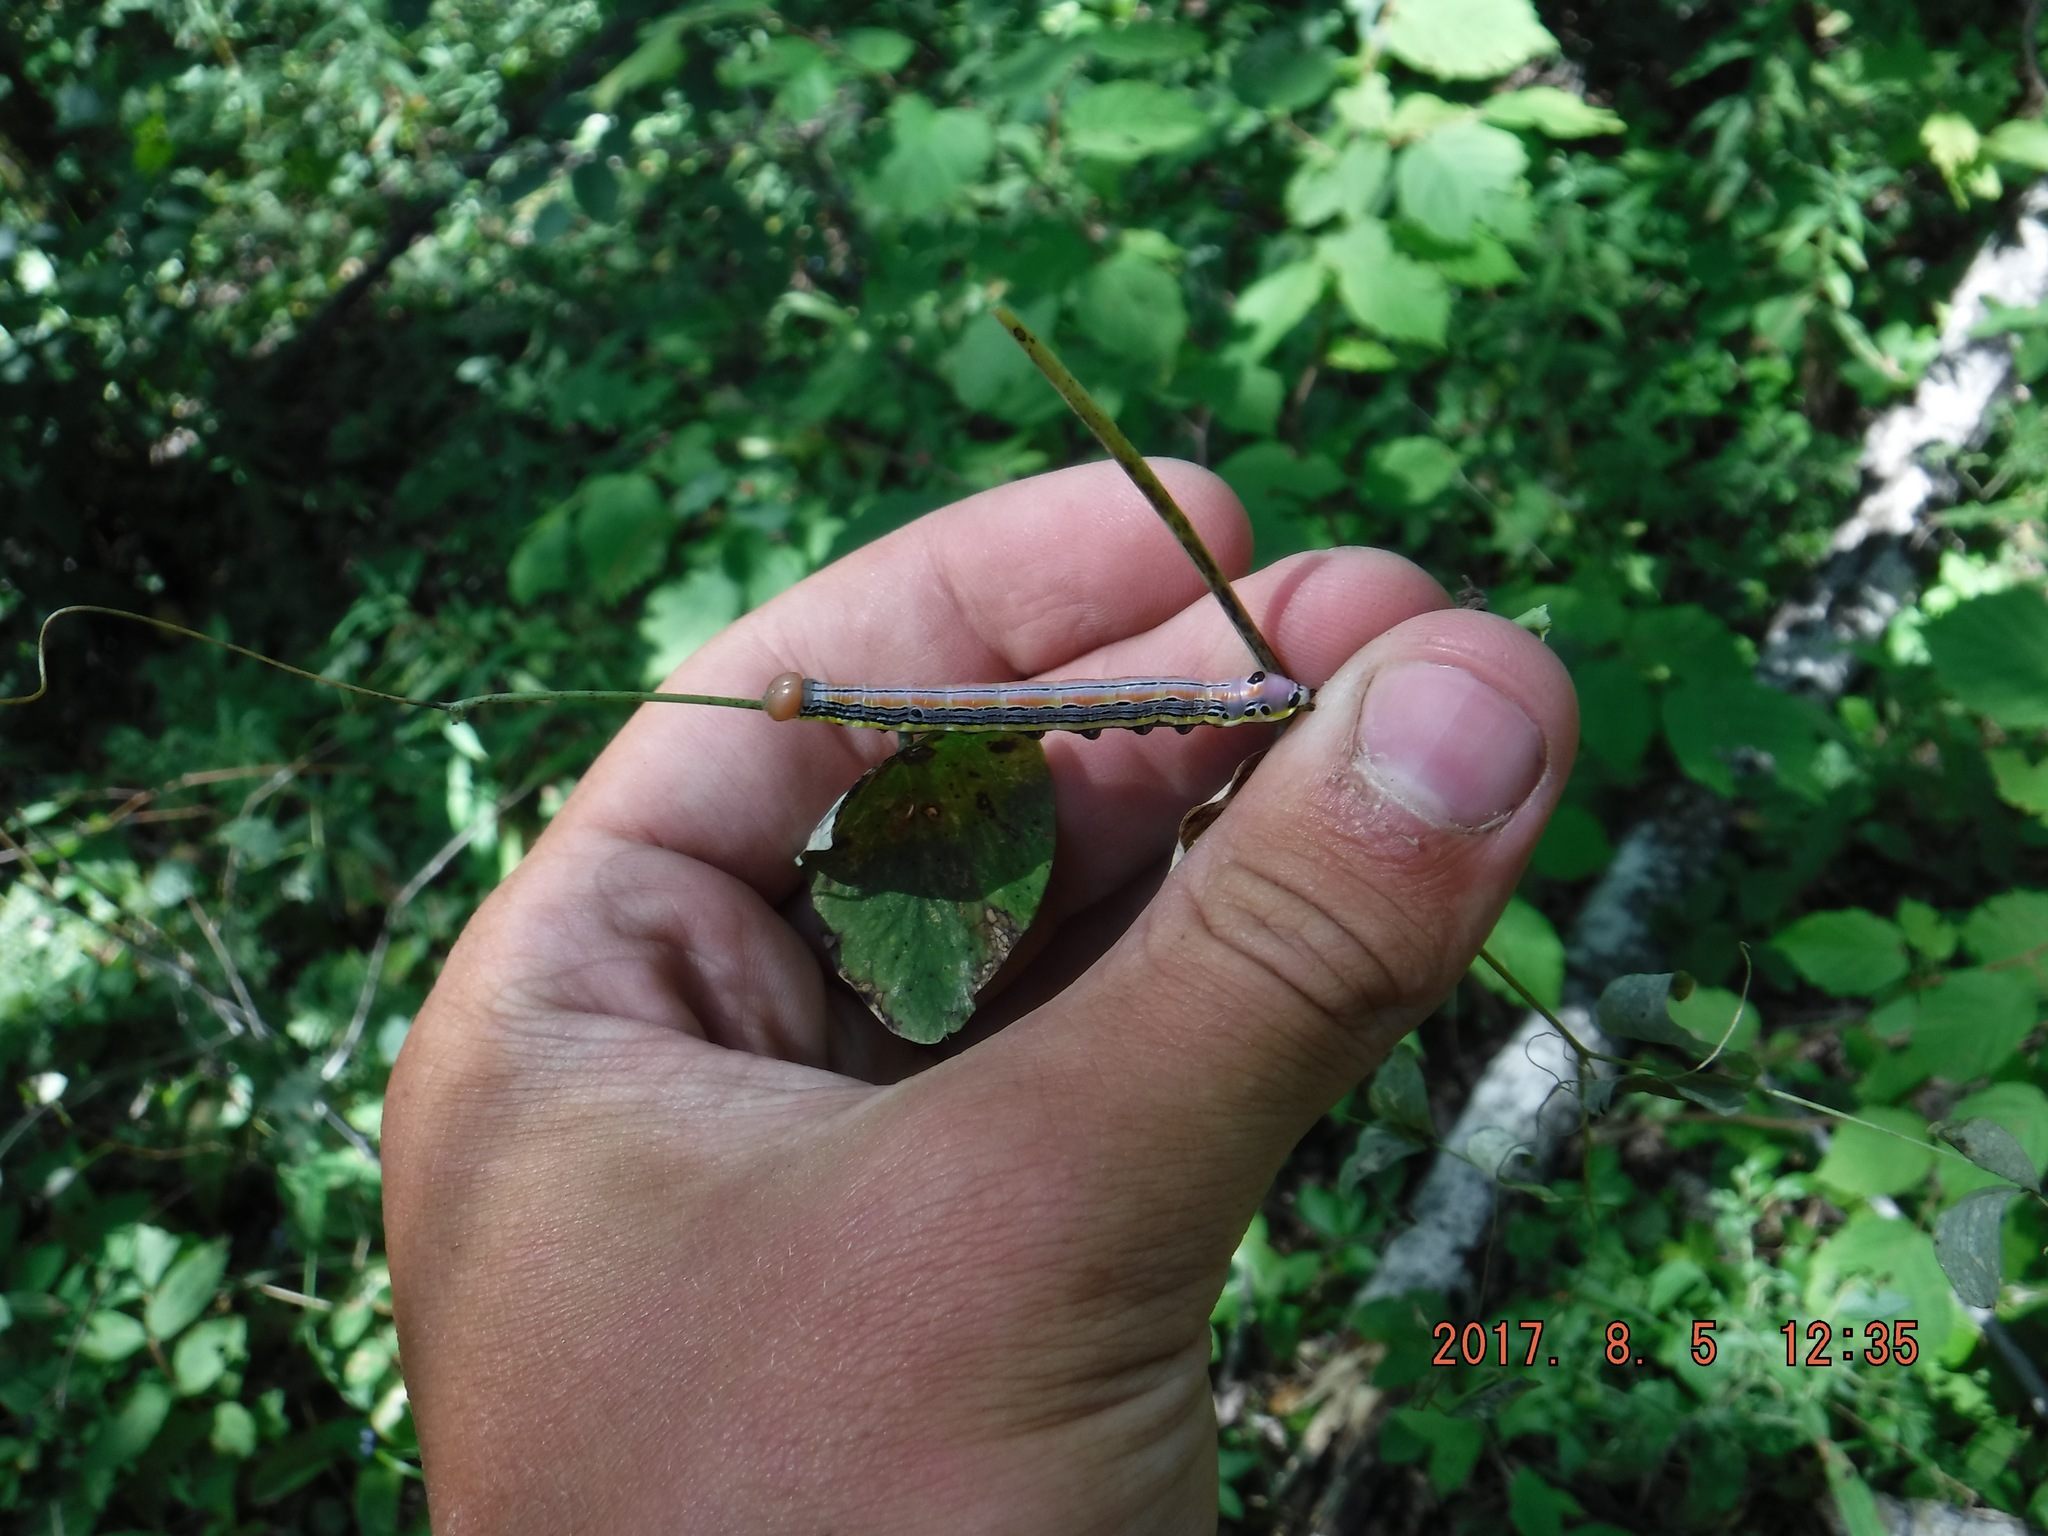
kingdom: Animalia
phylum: Arthropoda
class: Insecta
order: Lepidoptera
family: Notodontidae
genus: Dasylophia
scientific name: Dasylophia anguina
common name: Black-spotted prominent
